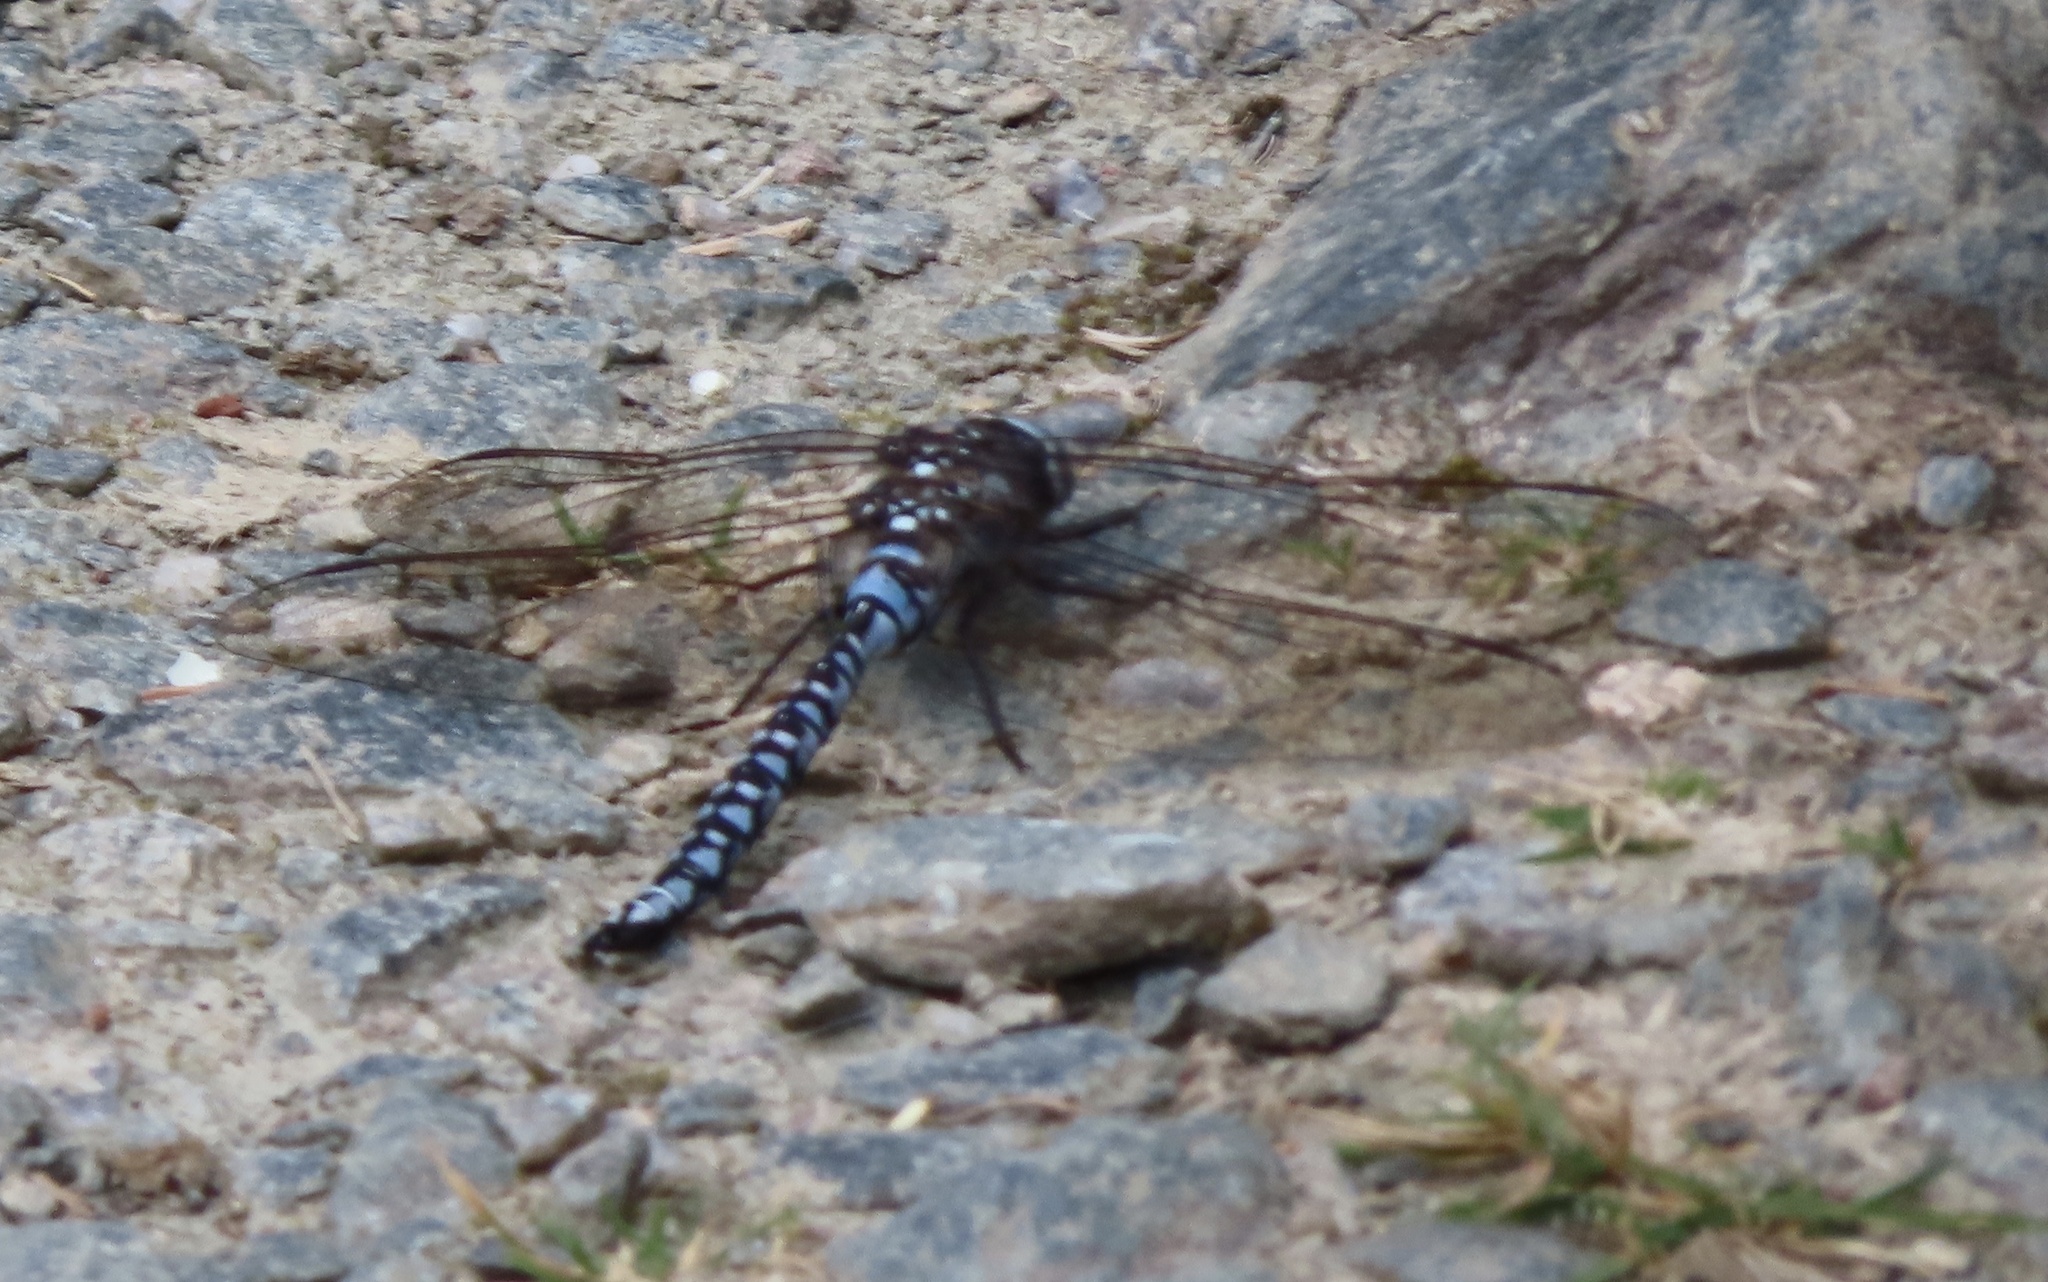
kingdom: Animalia
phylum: Arthropoda
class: Insecta
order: Odonata
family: Aeshnidae
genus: Aeshna
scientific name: Aeshna caerulea
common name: Azure hawker
